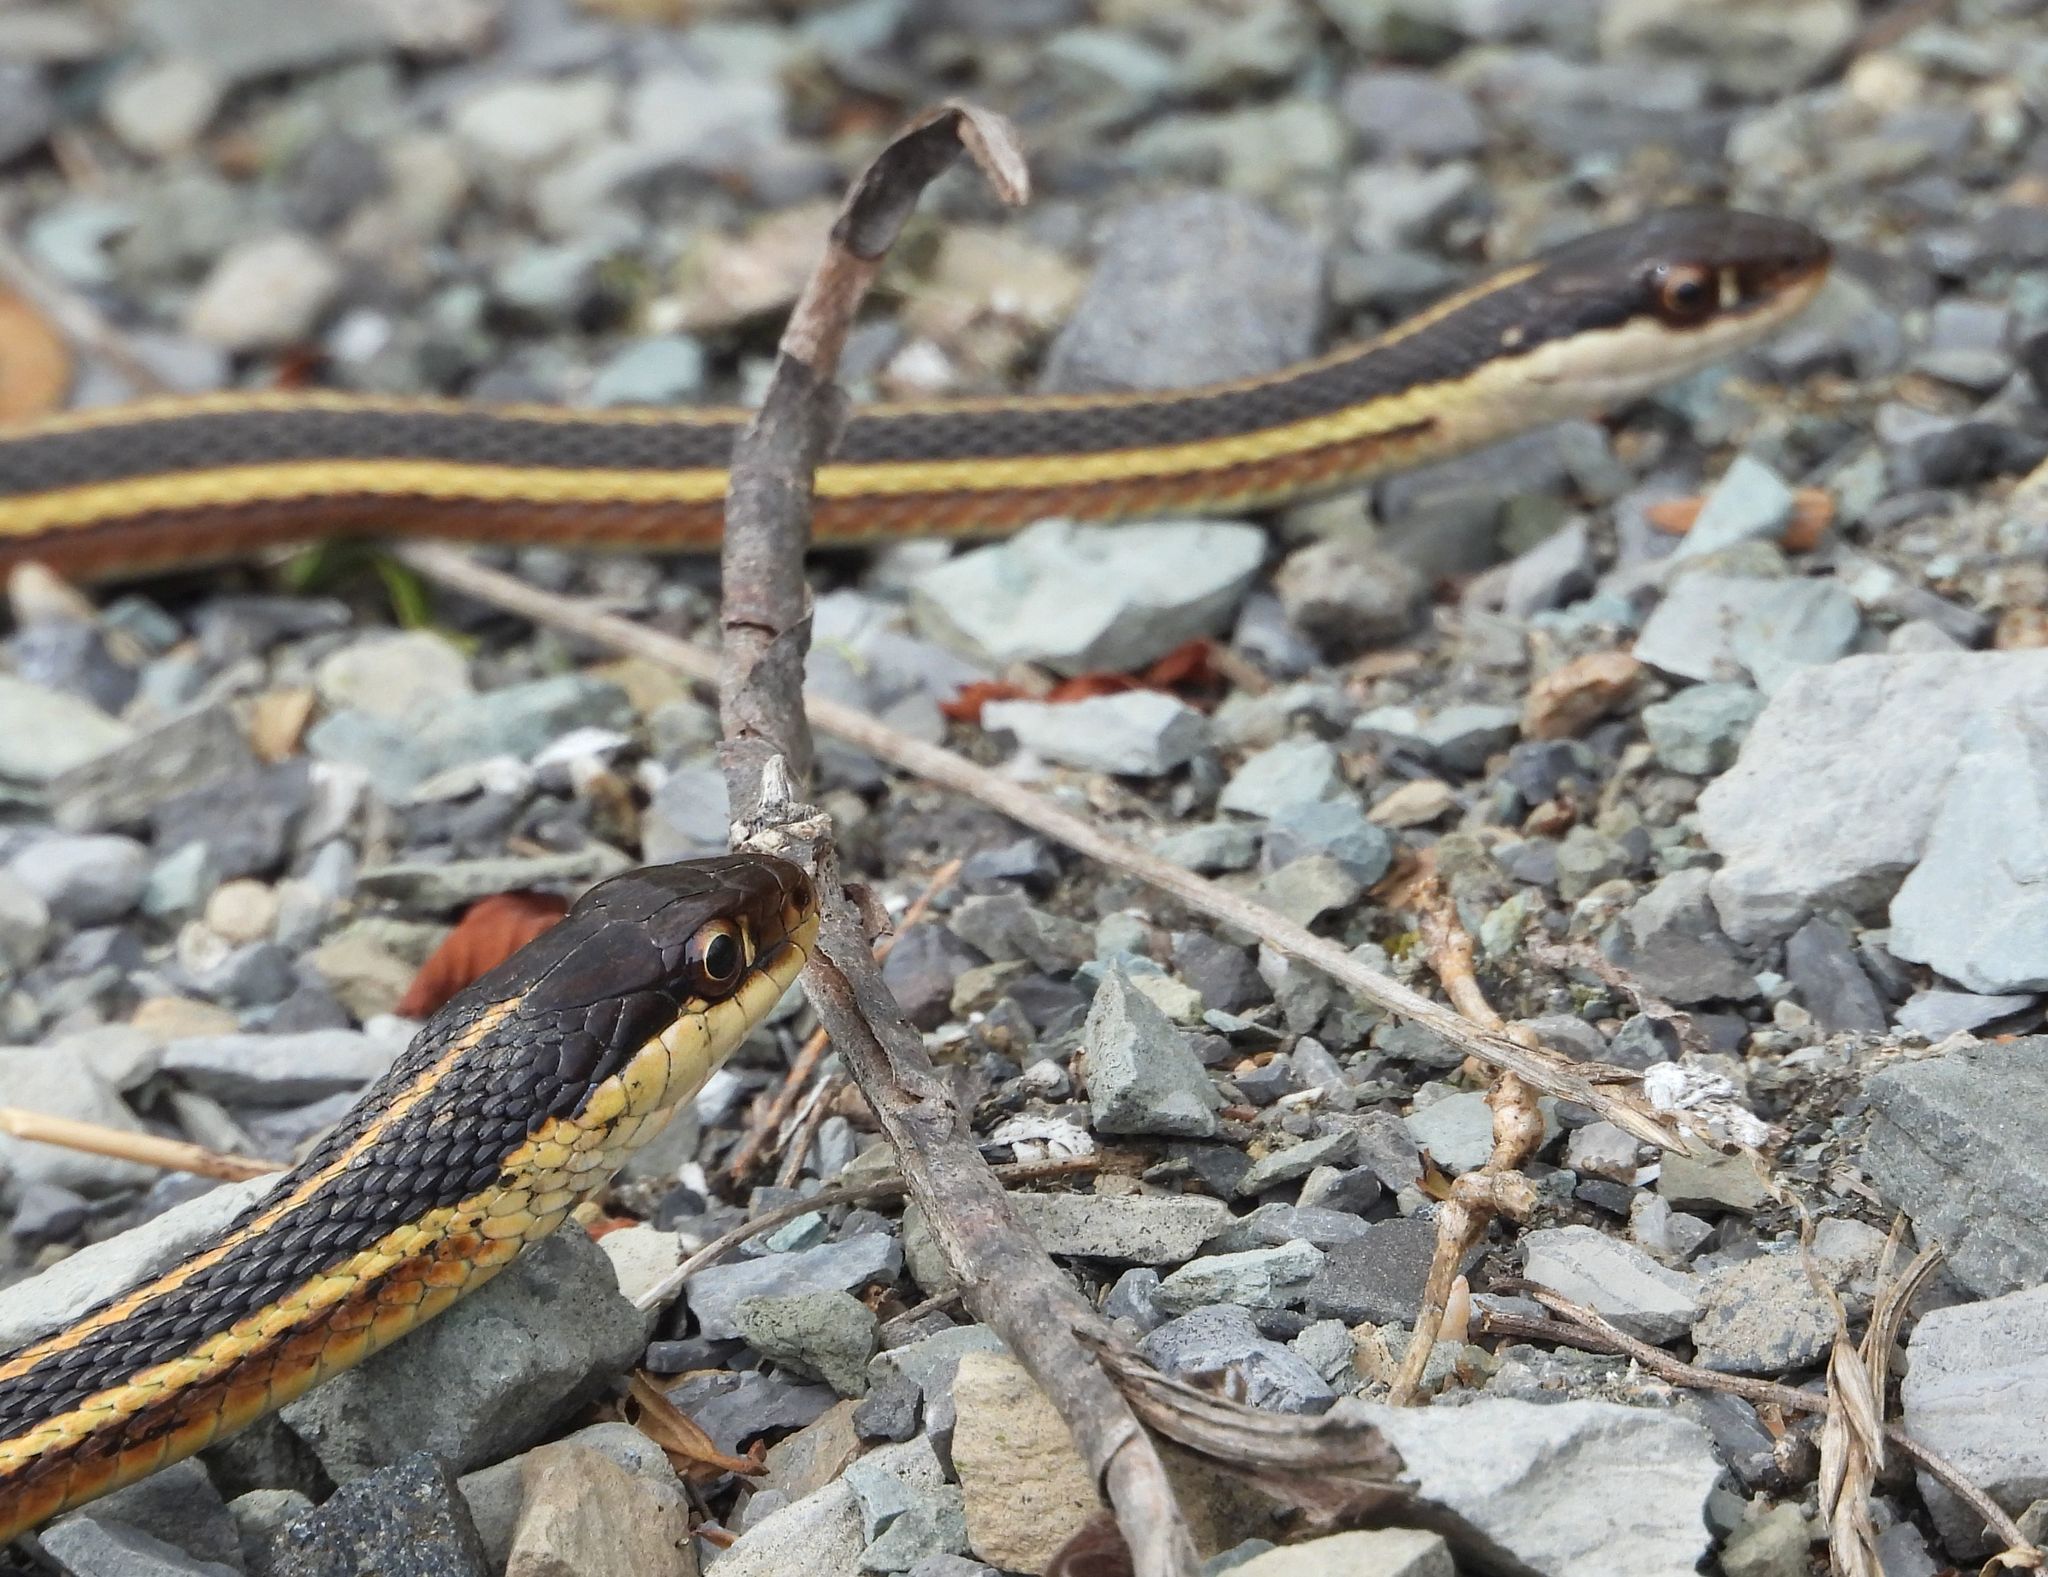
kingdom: Animalia
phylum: Chordata
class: Squamata
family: Colubridae
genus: Thamnophis
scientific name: Thamnophis saurita
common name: Eastern ribbonsnake
